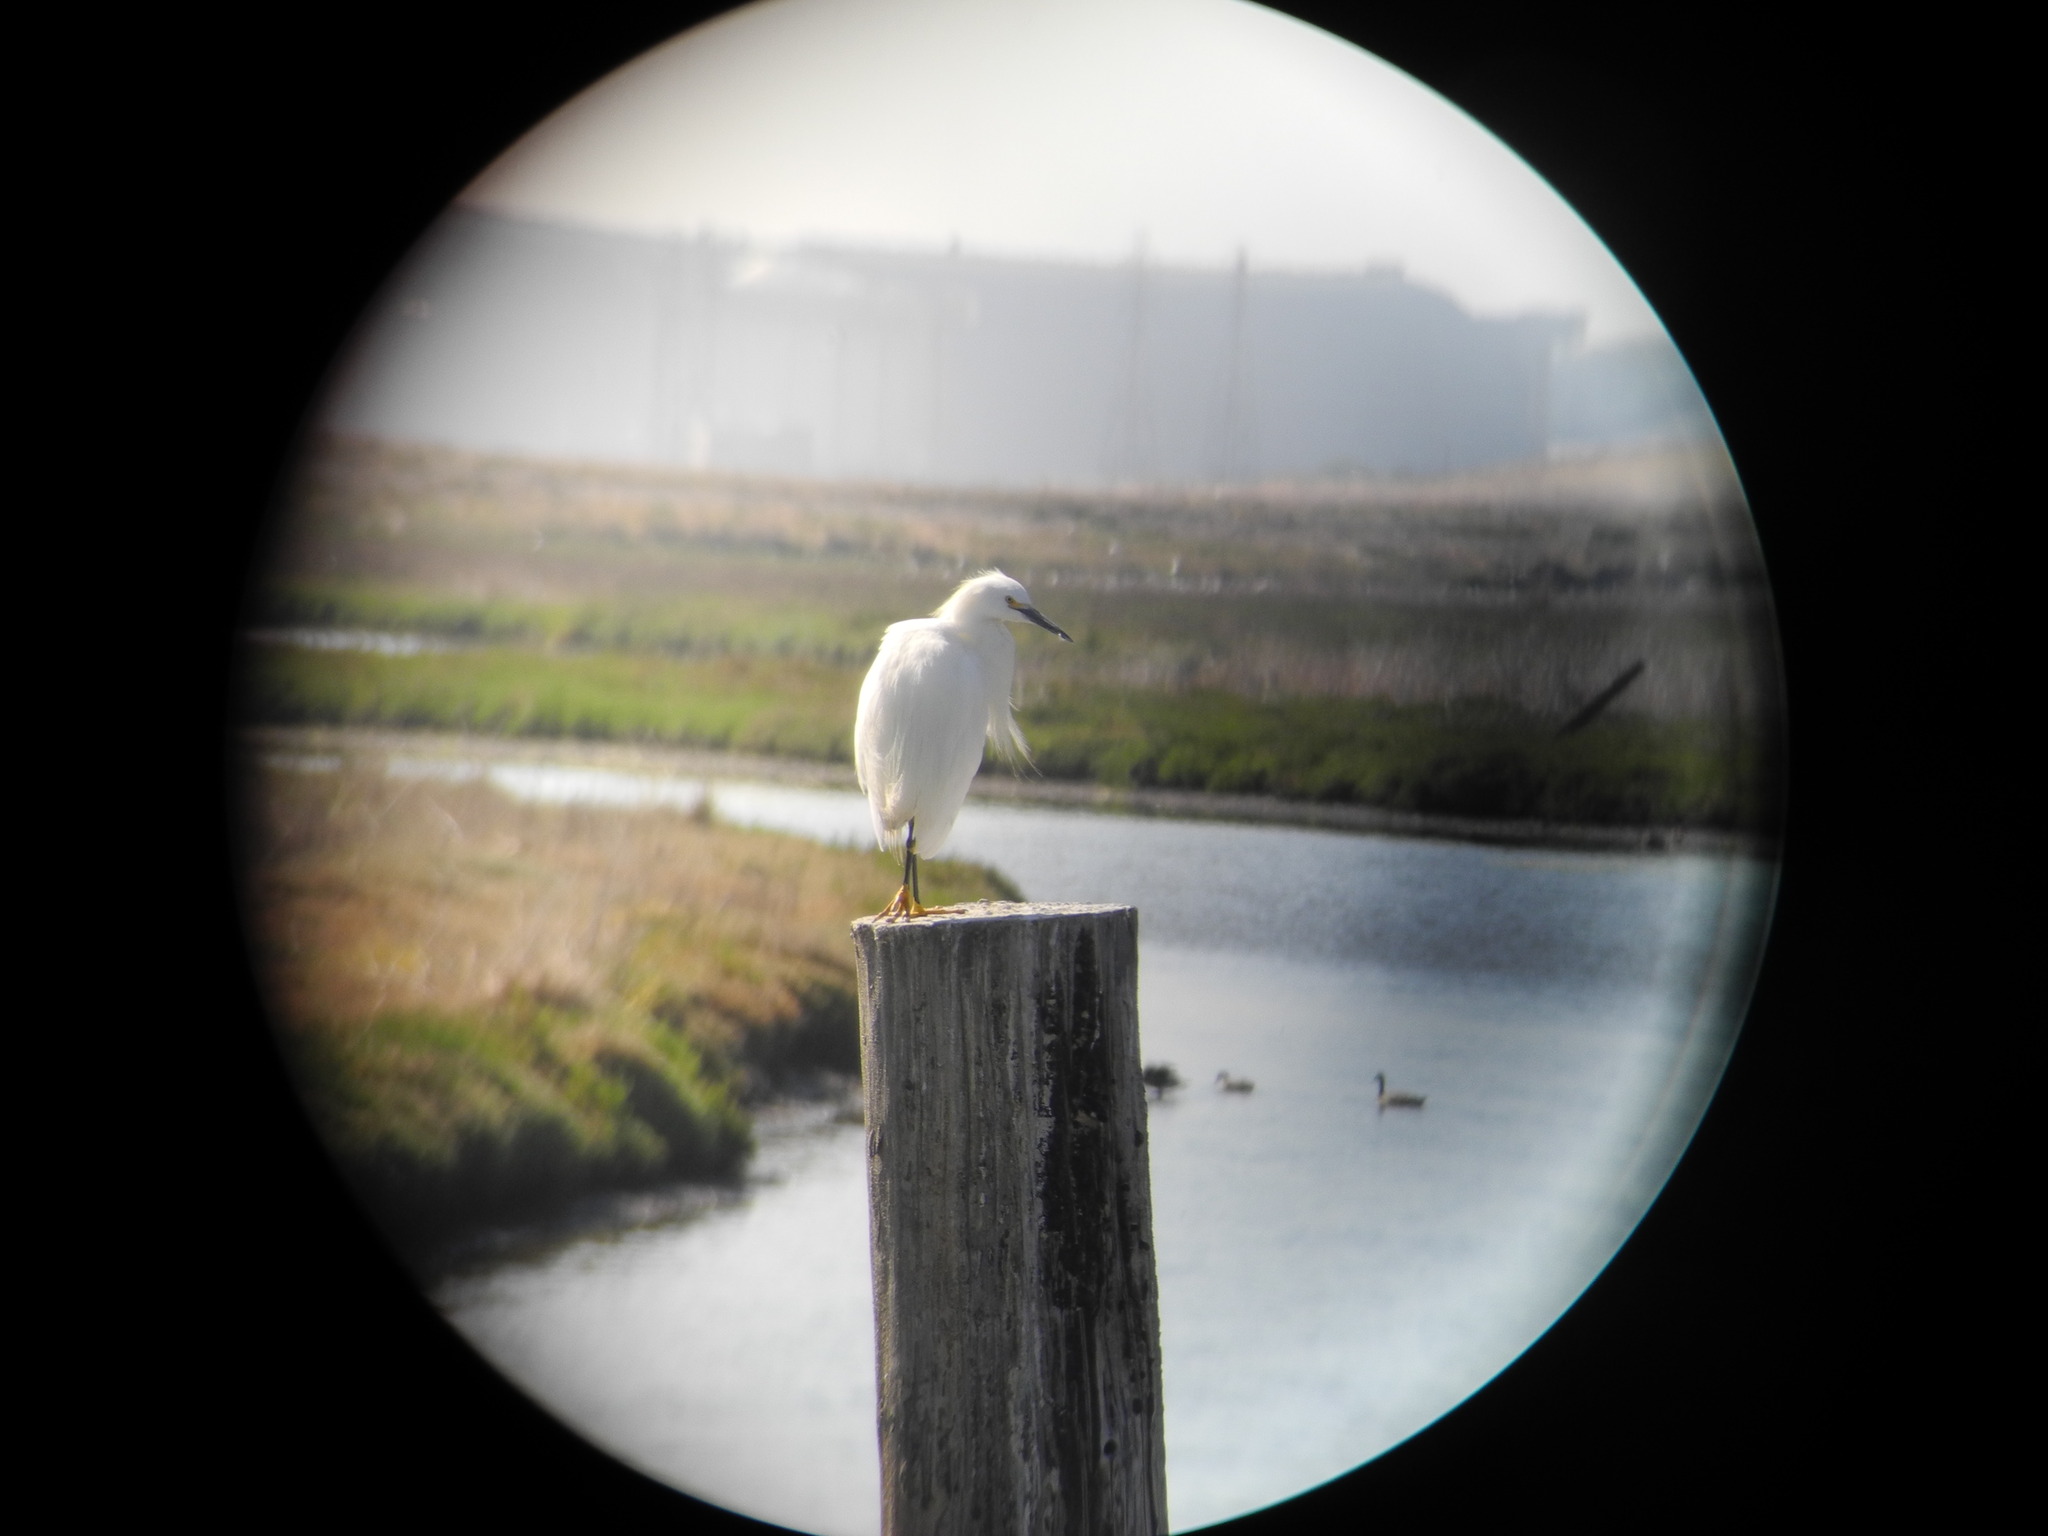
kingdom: Animalia
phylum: Chordata
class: Aves
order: Pelecaniformes
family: Ardeidae
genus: Egretta
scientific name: Egretta thula
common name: Snowy egret
